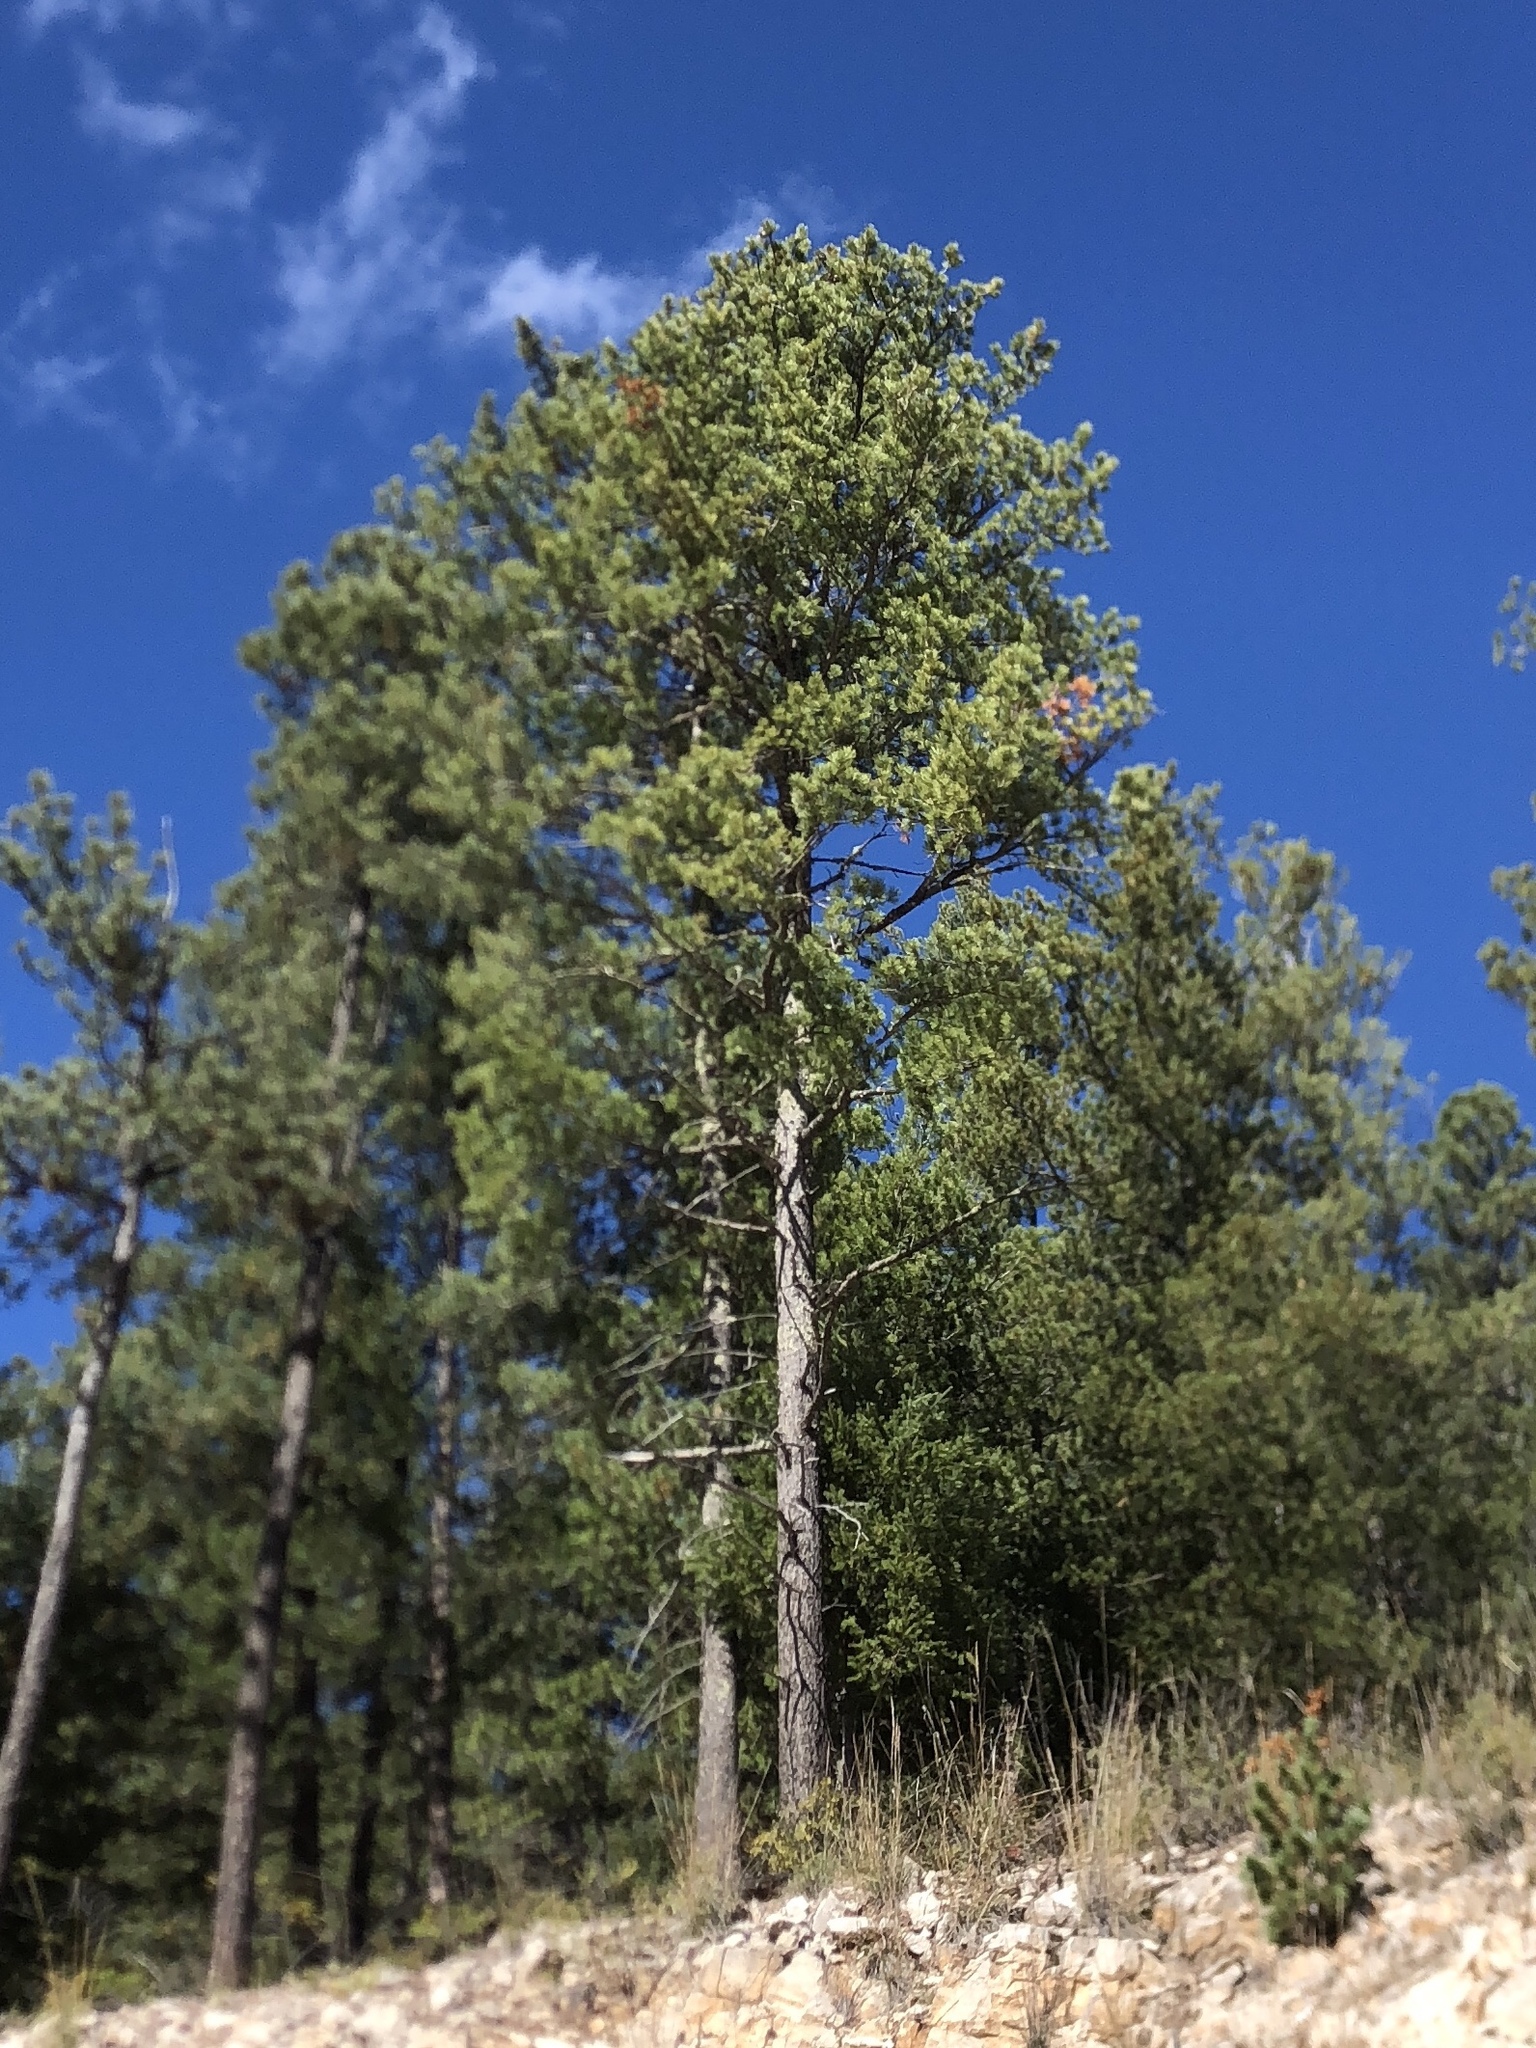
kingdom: Plantae
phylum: Tracheophyta
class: Pinopsida
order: Pinales
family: Pinaceae
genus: Pinus
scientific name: Pinus ponderosa
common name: Western yellow-pine
